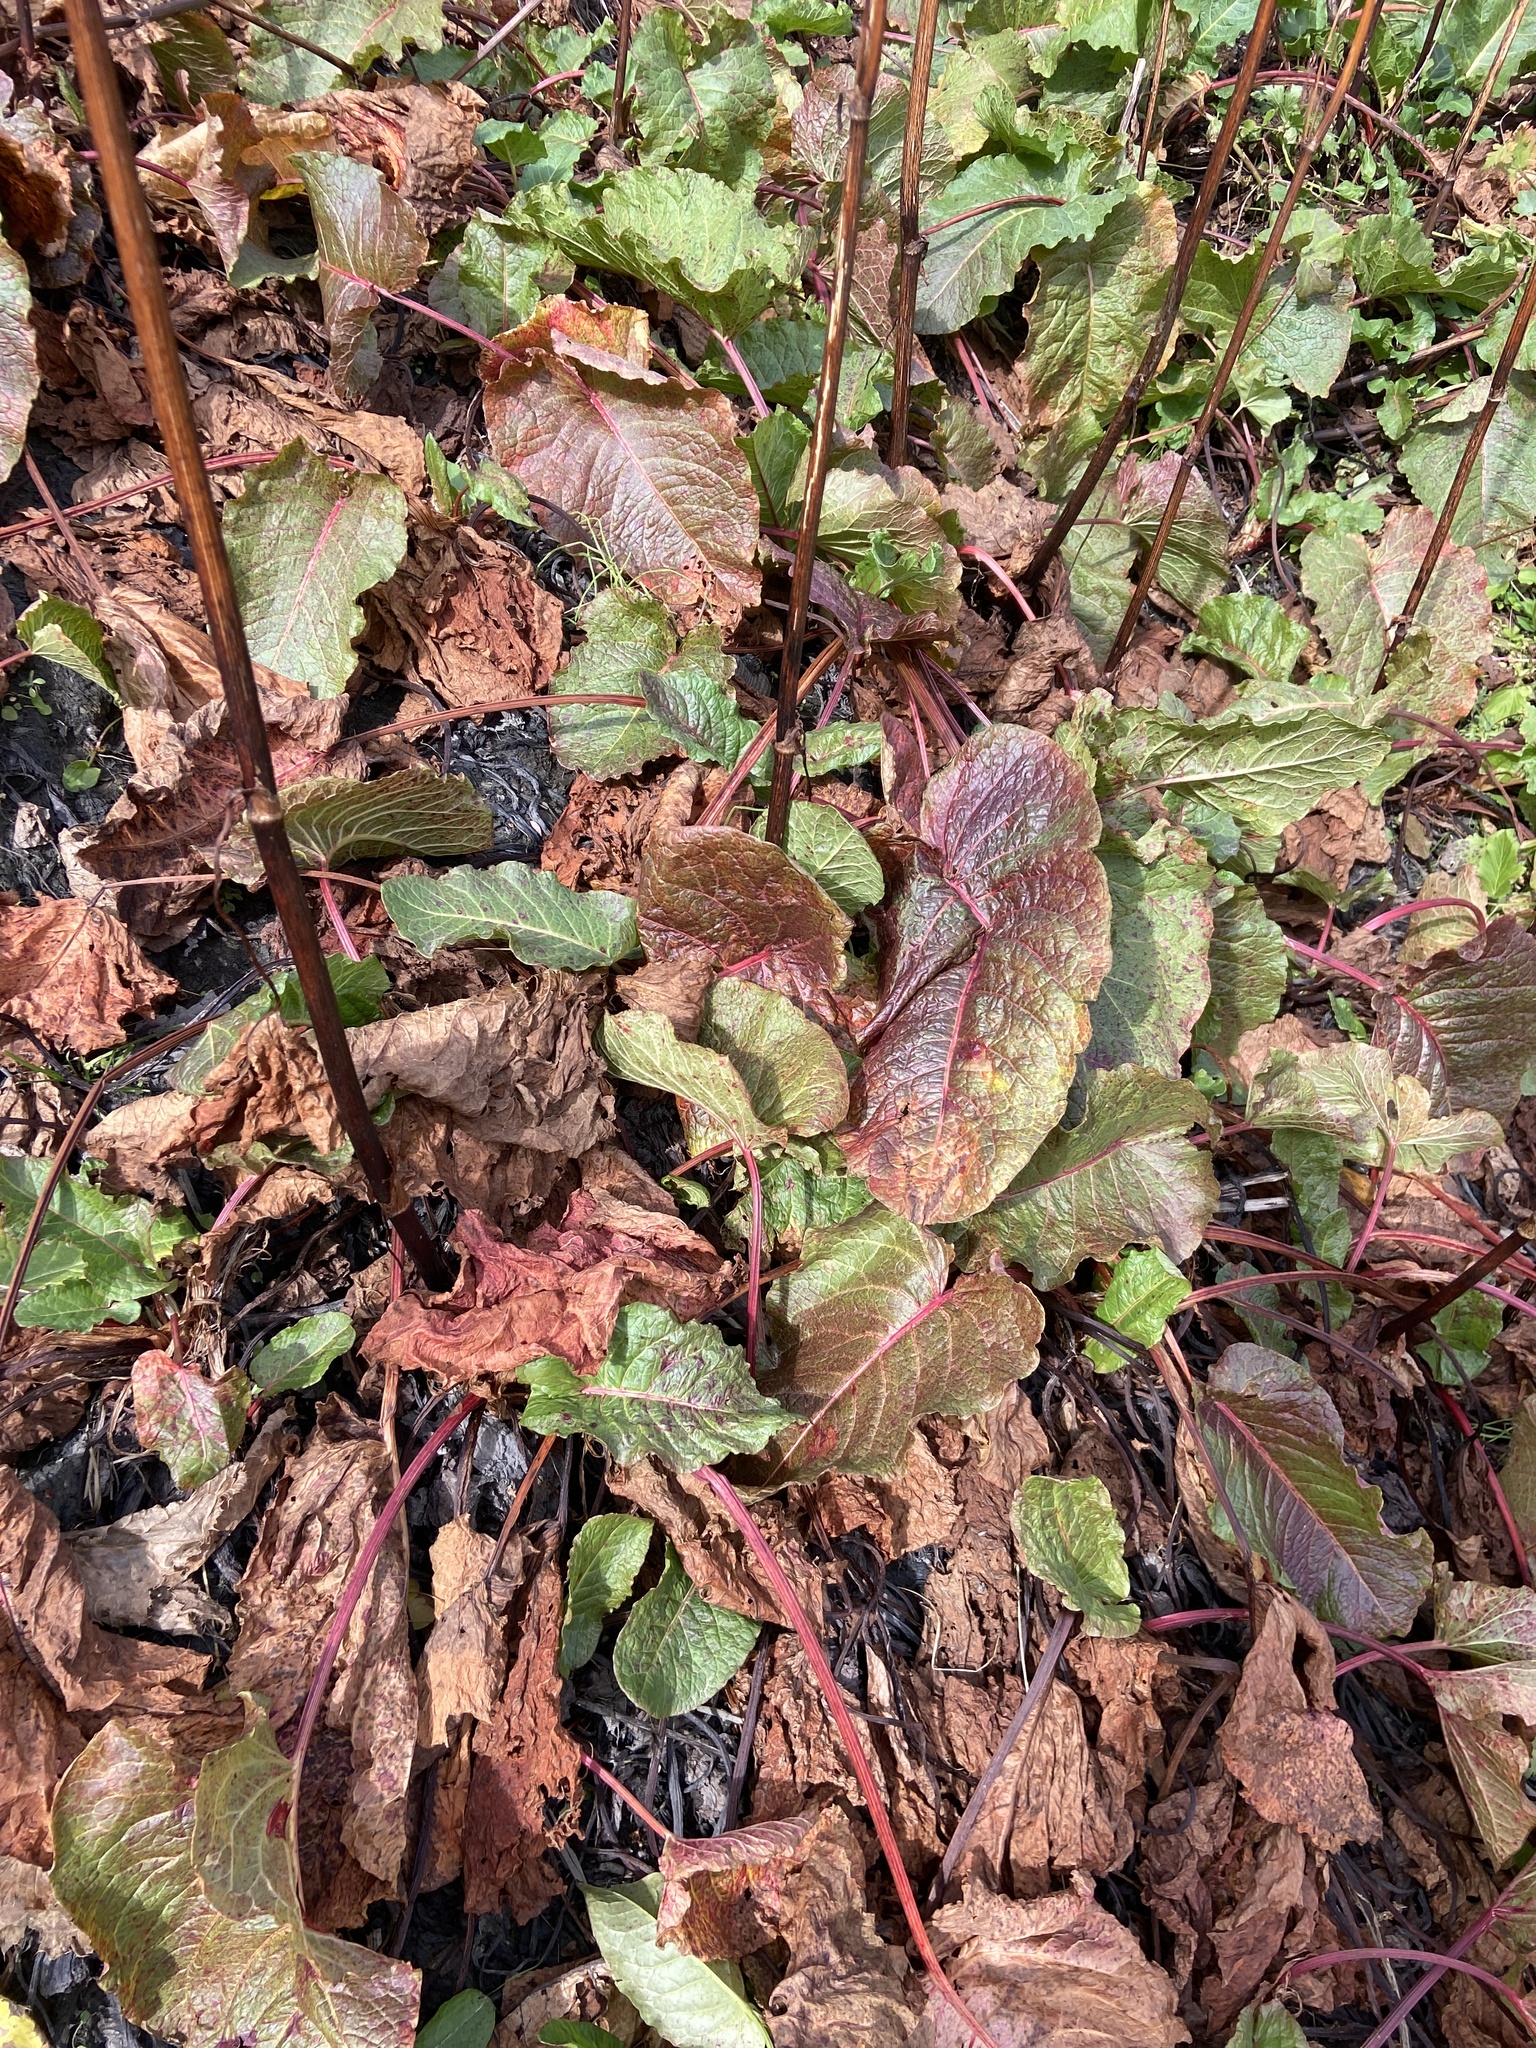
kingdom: Plantae
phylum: Tracheophyta
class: Magnoliopsida
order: Caryophyllales
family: Polygonaceae
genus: Rumex
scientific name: Rumex alpinus
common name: Alpine dock
